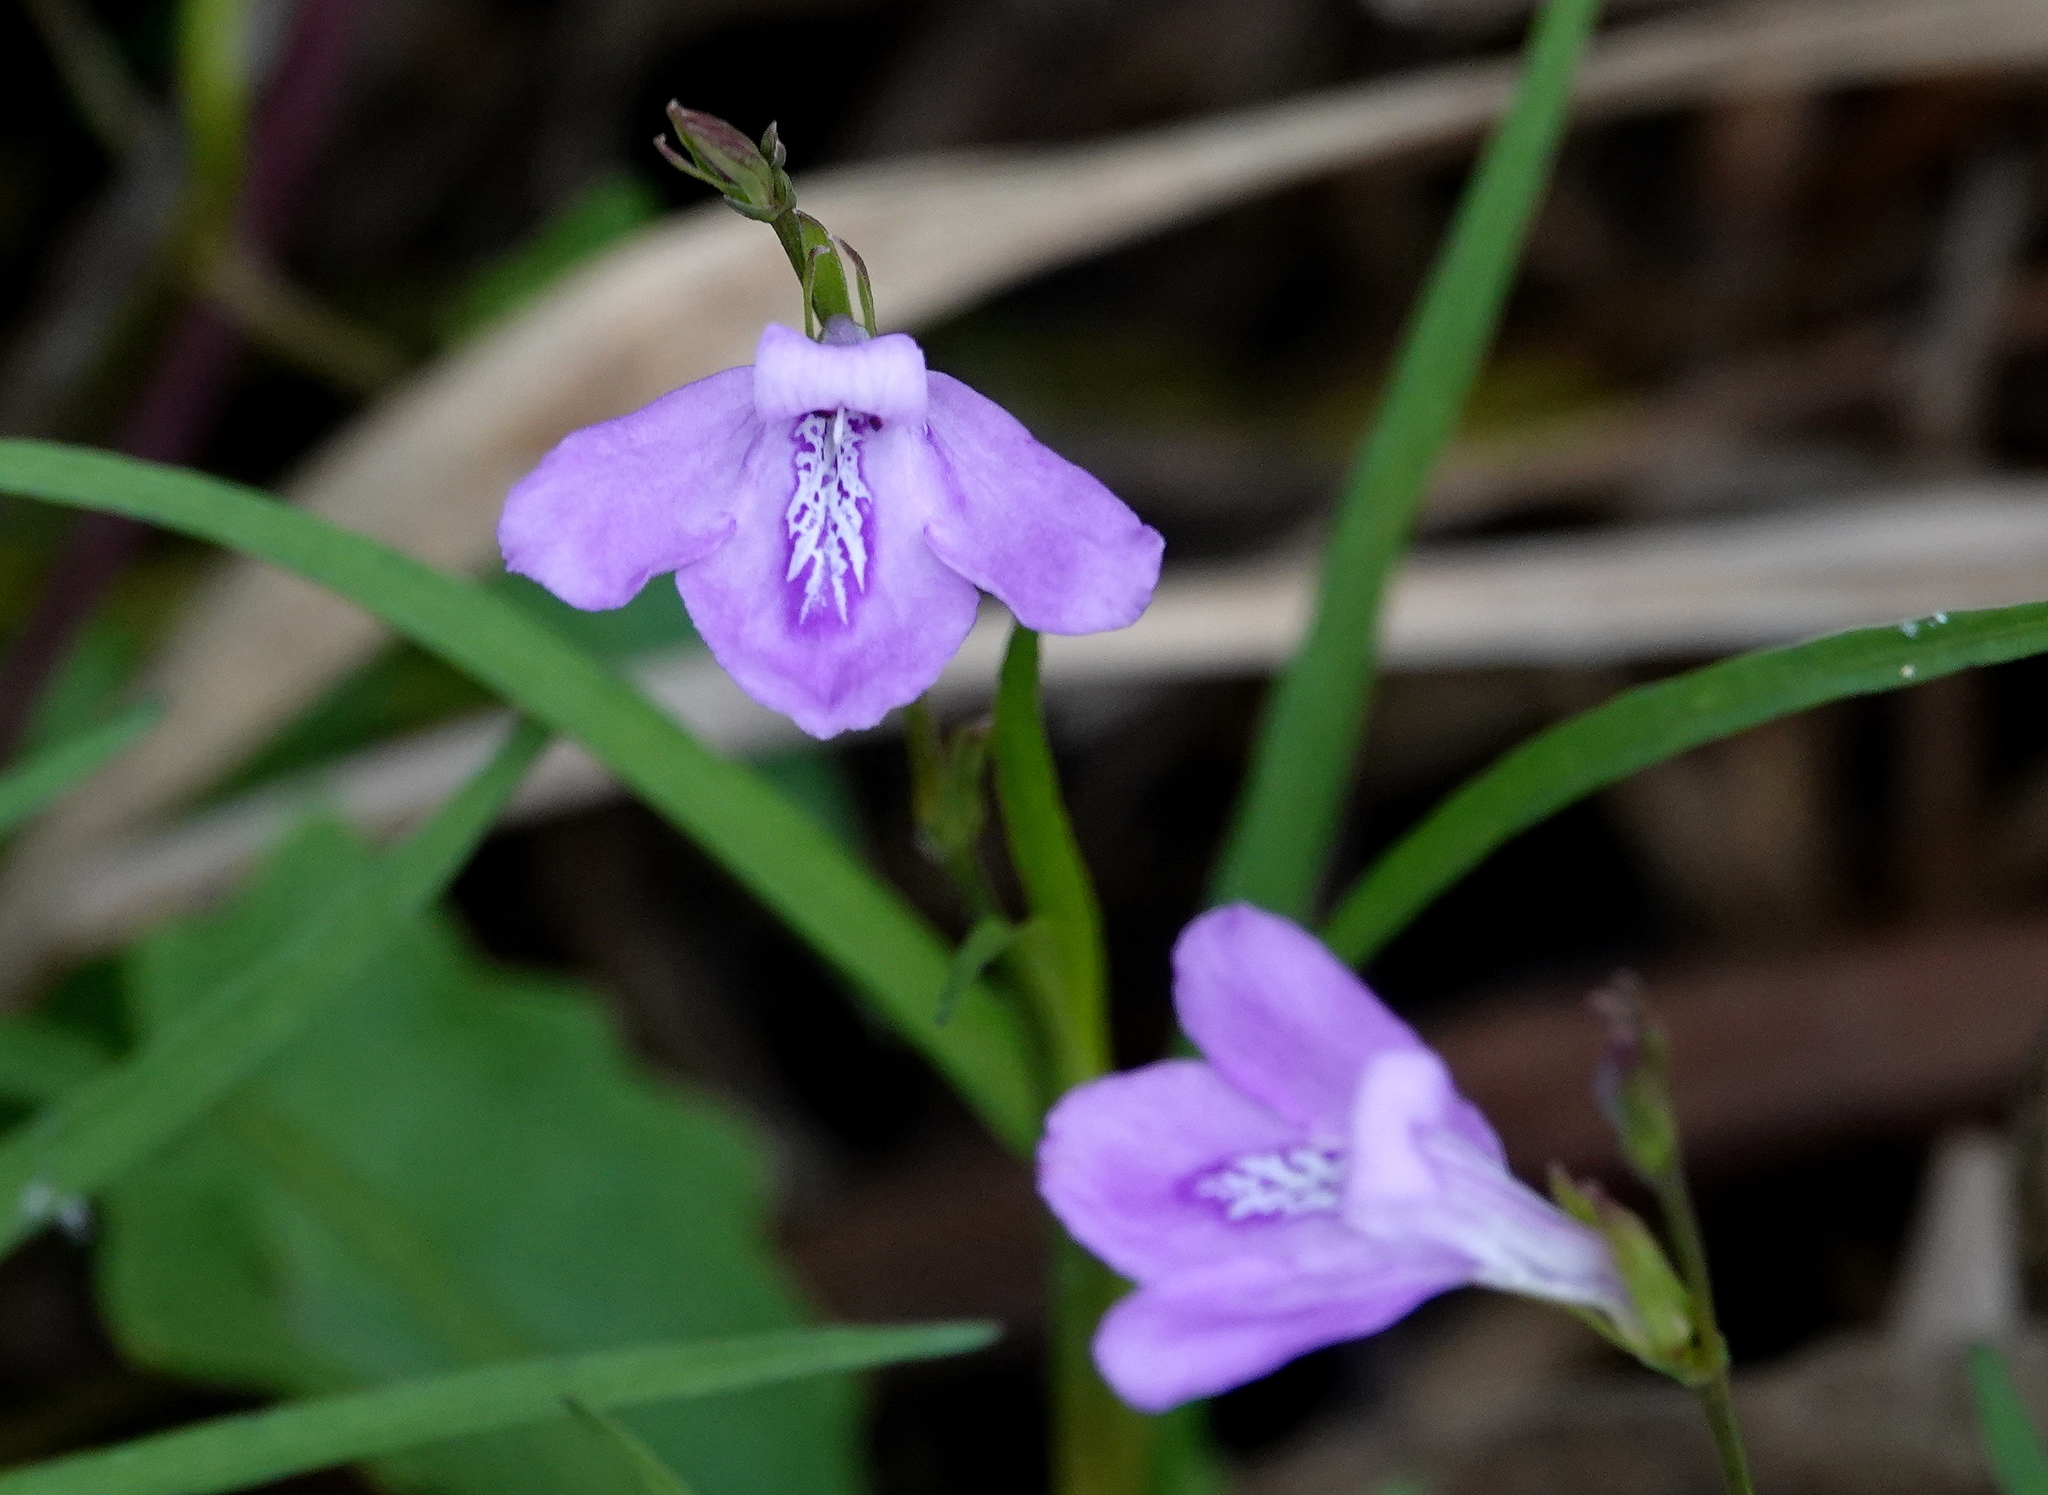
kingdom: Plantae
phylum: Tracheophyta
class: Magnoliopsida
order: Lamiales
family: Acanthaceae
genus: Dianthera
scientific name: Dianthera angusta
